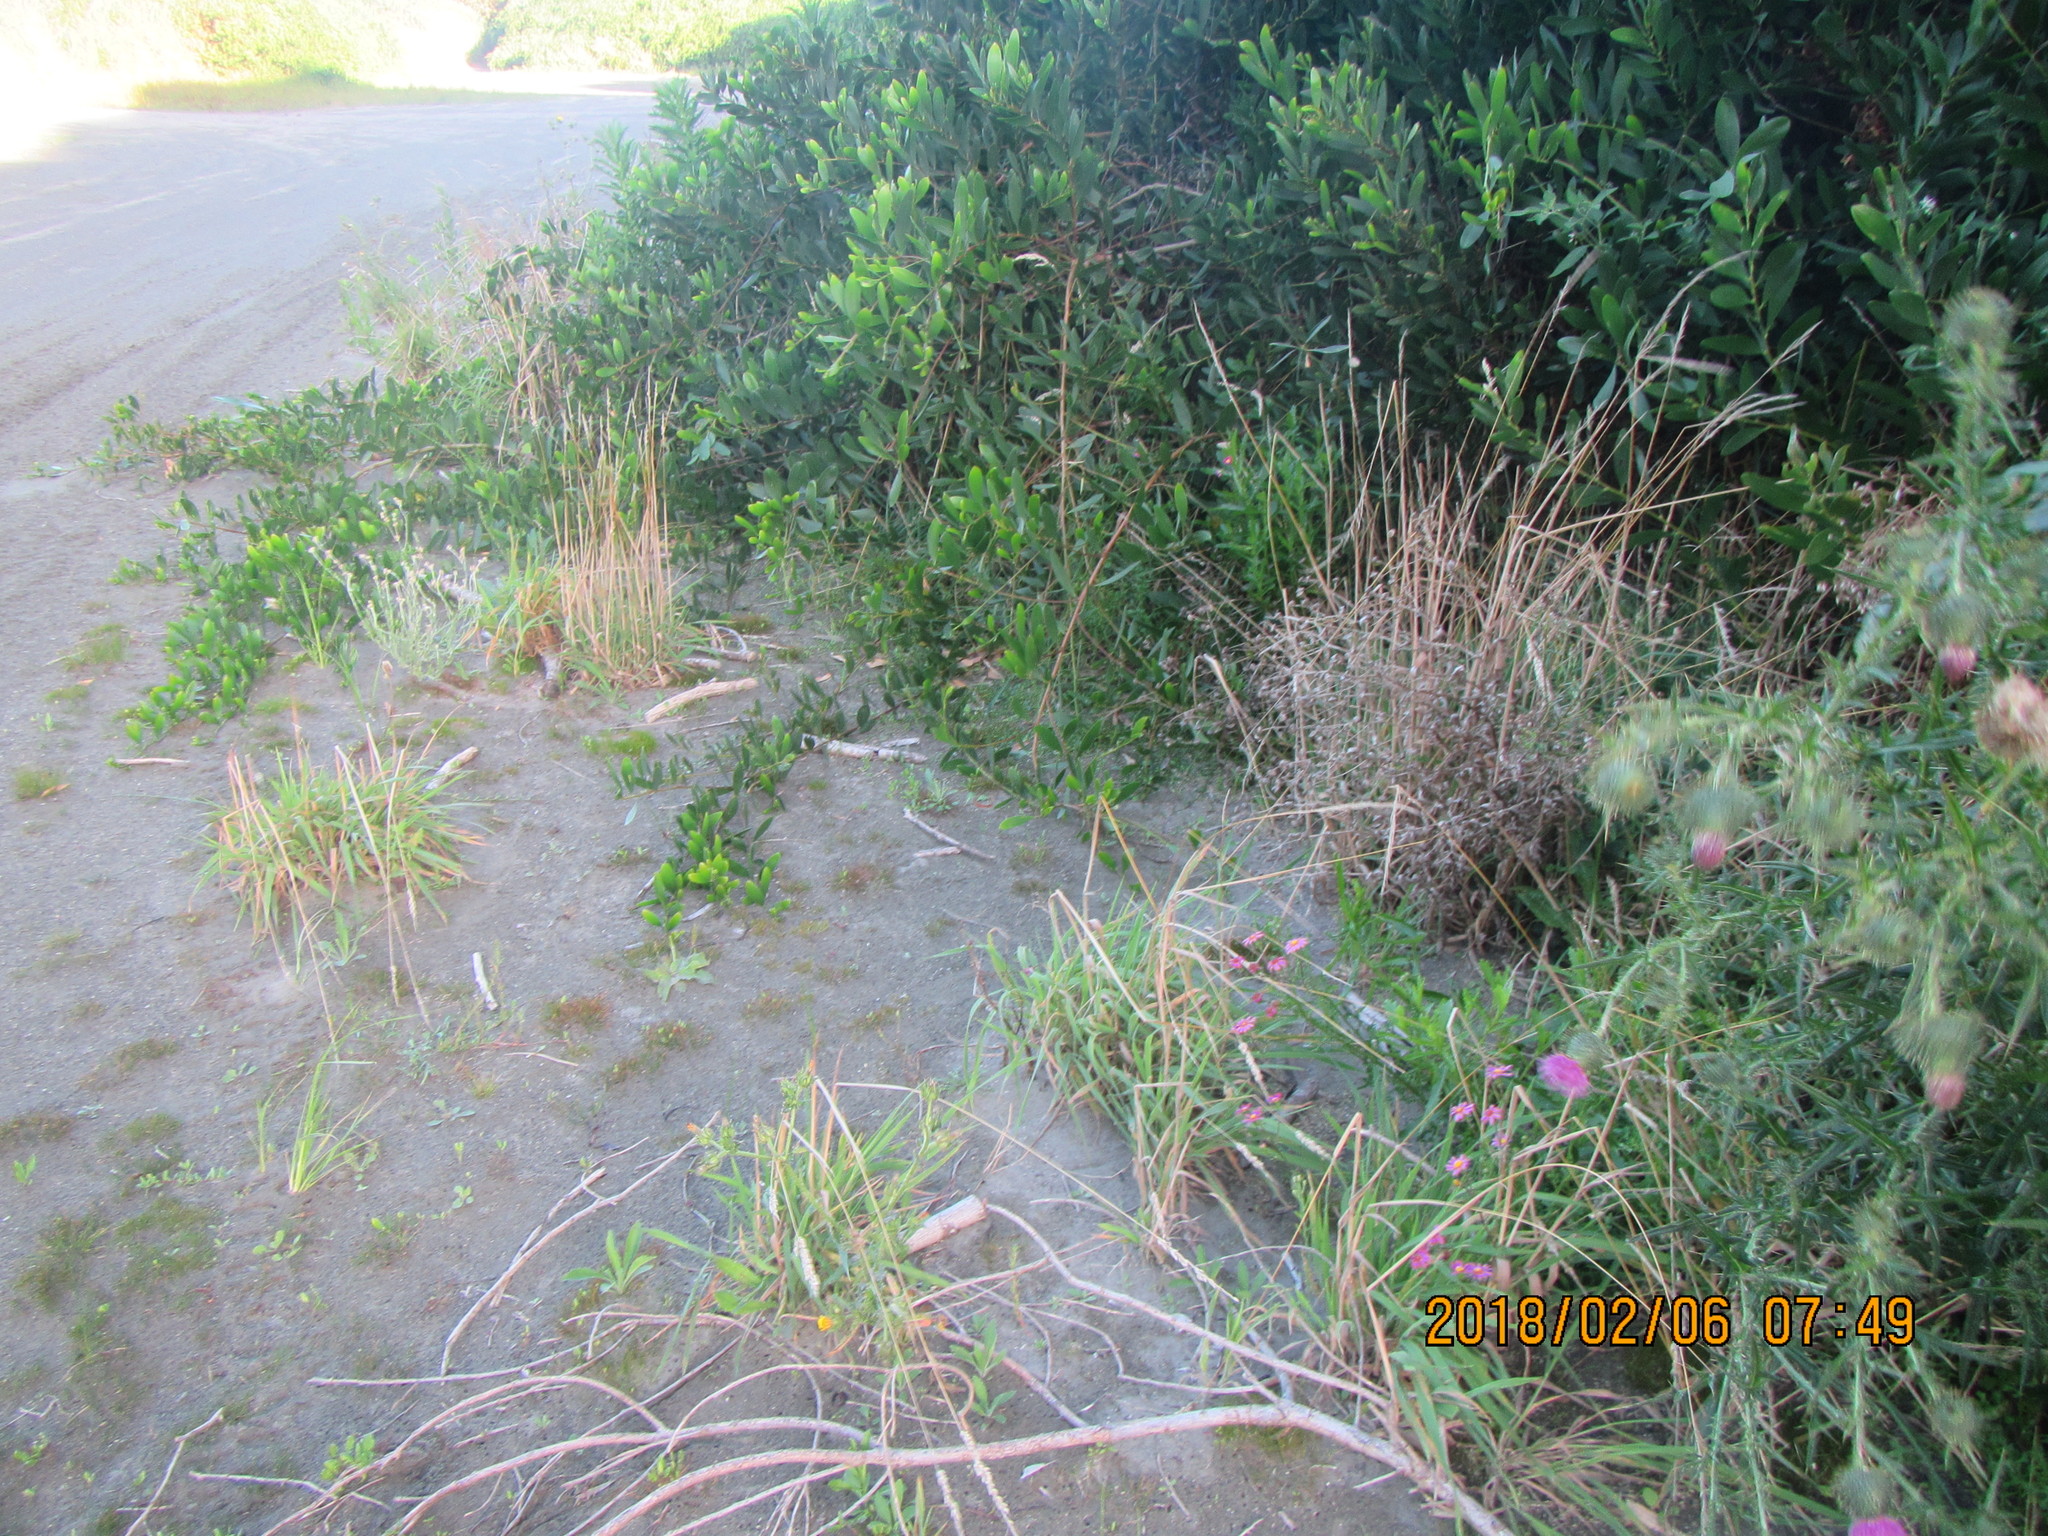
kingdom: Plantae
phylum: Tracheophyta
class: Magnoliopsida
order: Asterales
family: Asteraceae
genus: Senecio
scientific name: Senecio elegans
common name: Purple groundsel
